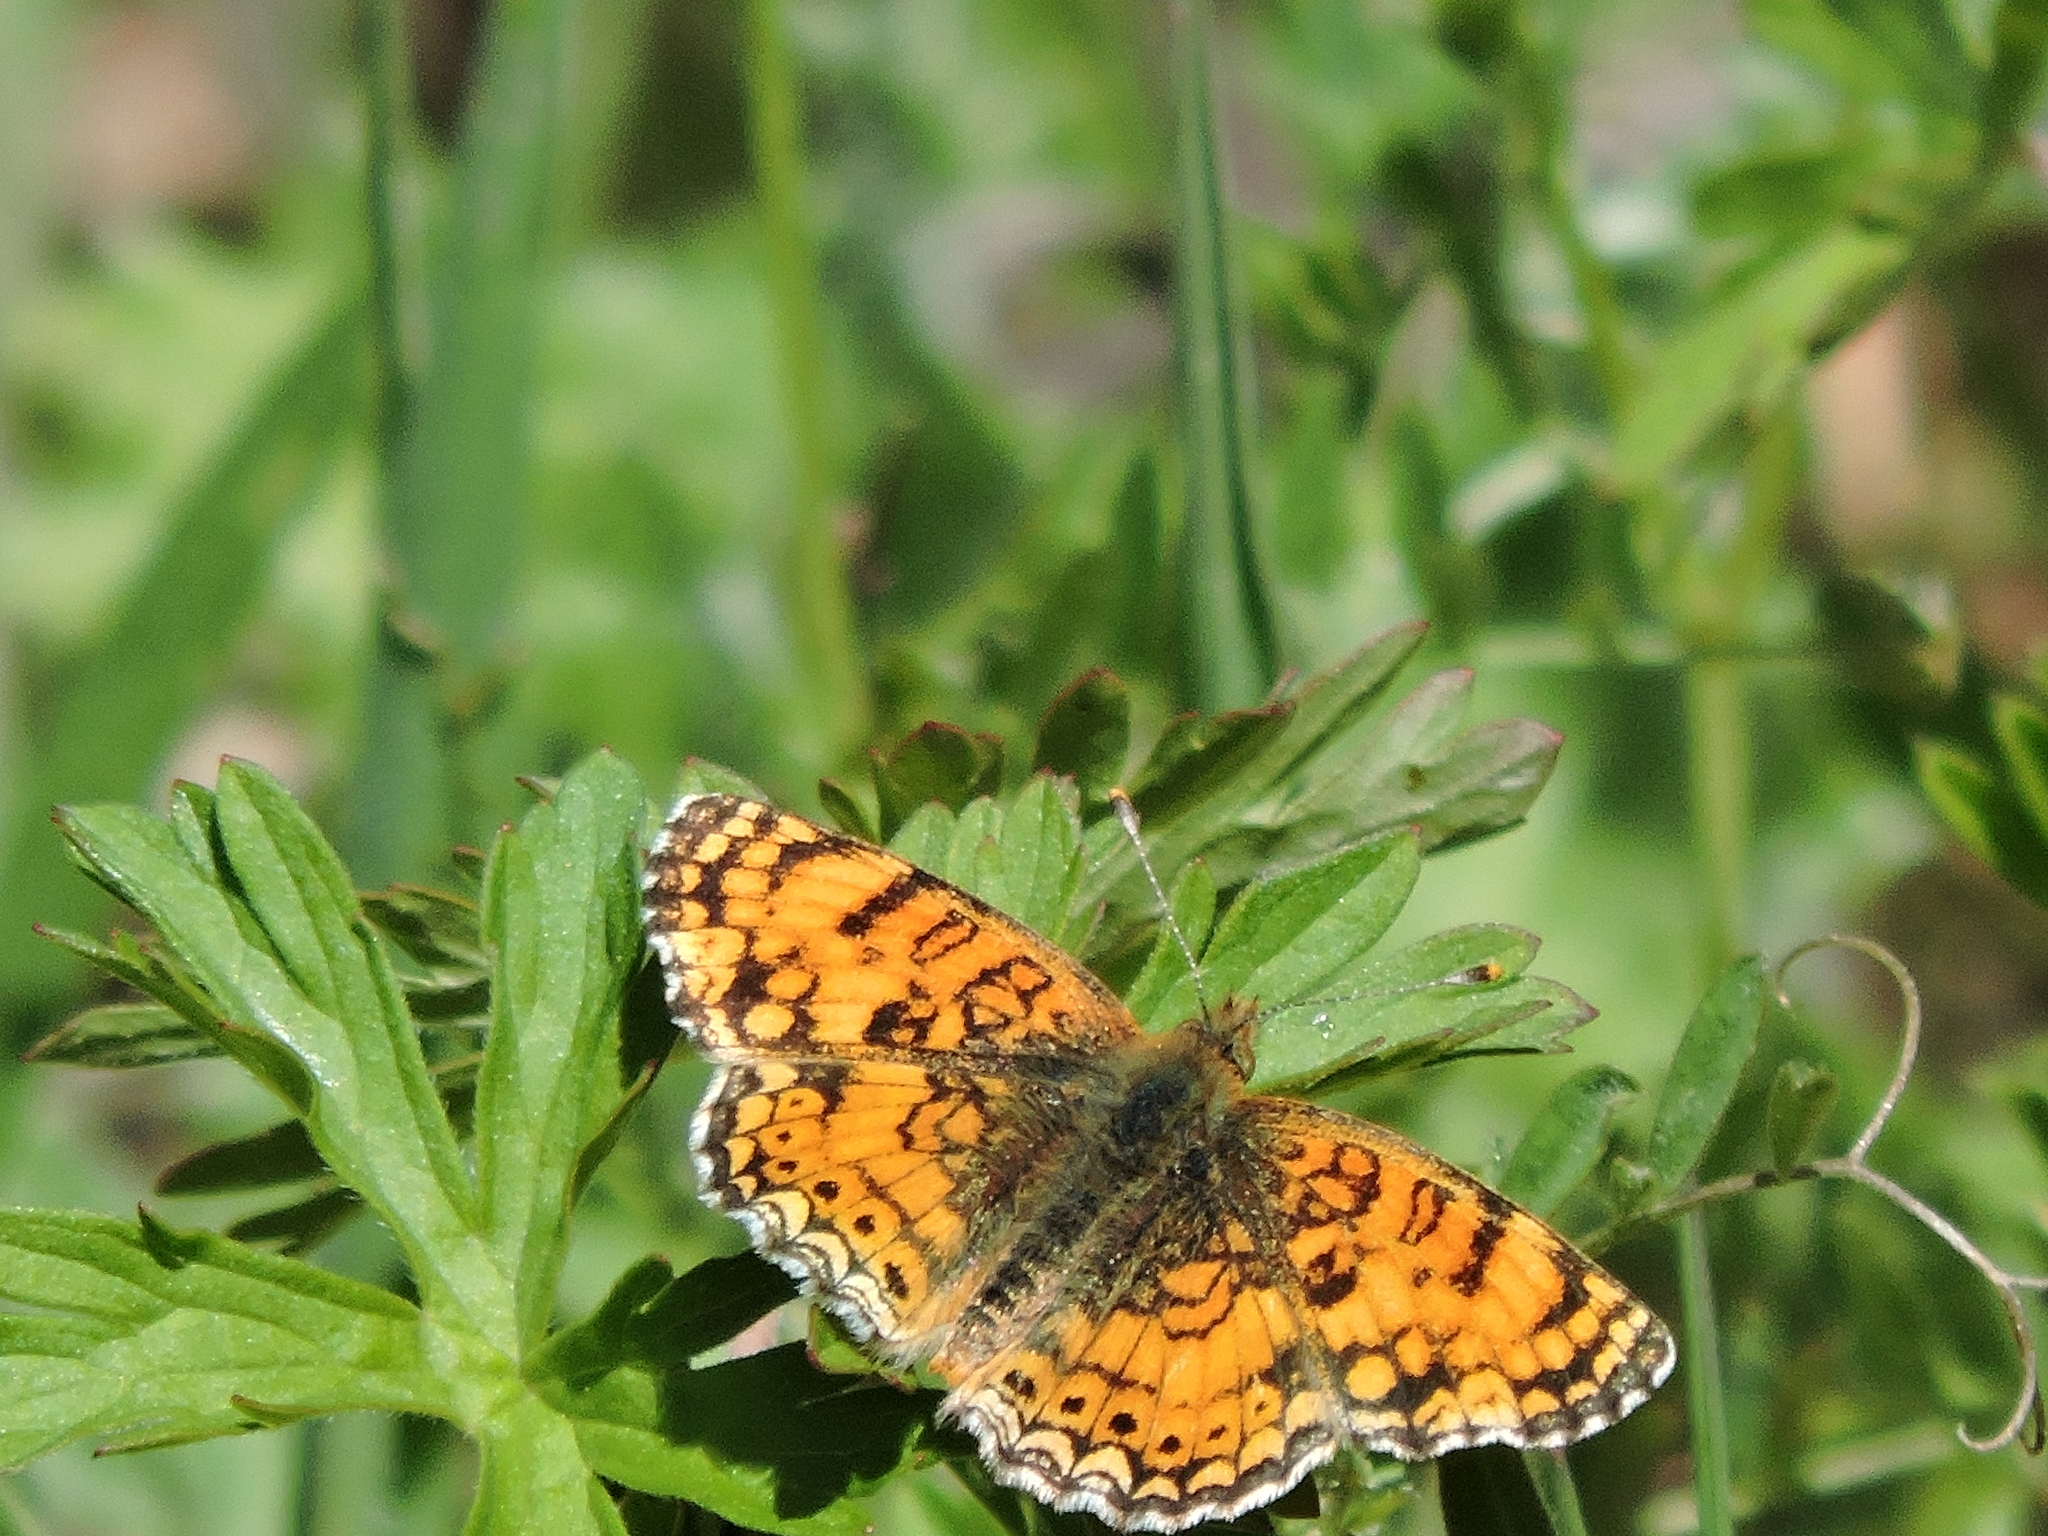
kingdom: Animalia
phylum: Arthropoda
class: Insecta
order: Lepidoptera
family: Nymphalidae
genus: Eresia
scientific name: Eresia aveyrona
